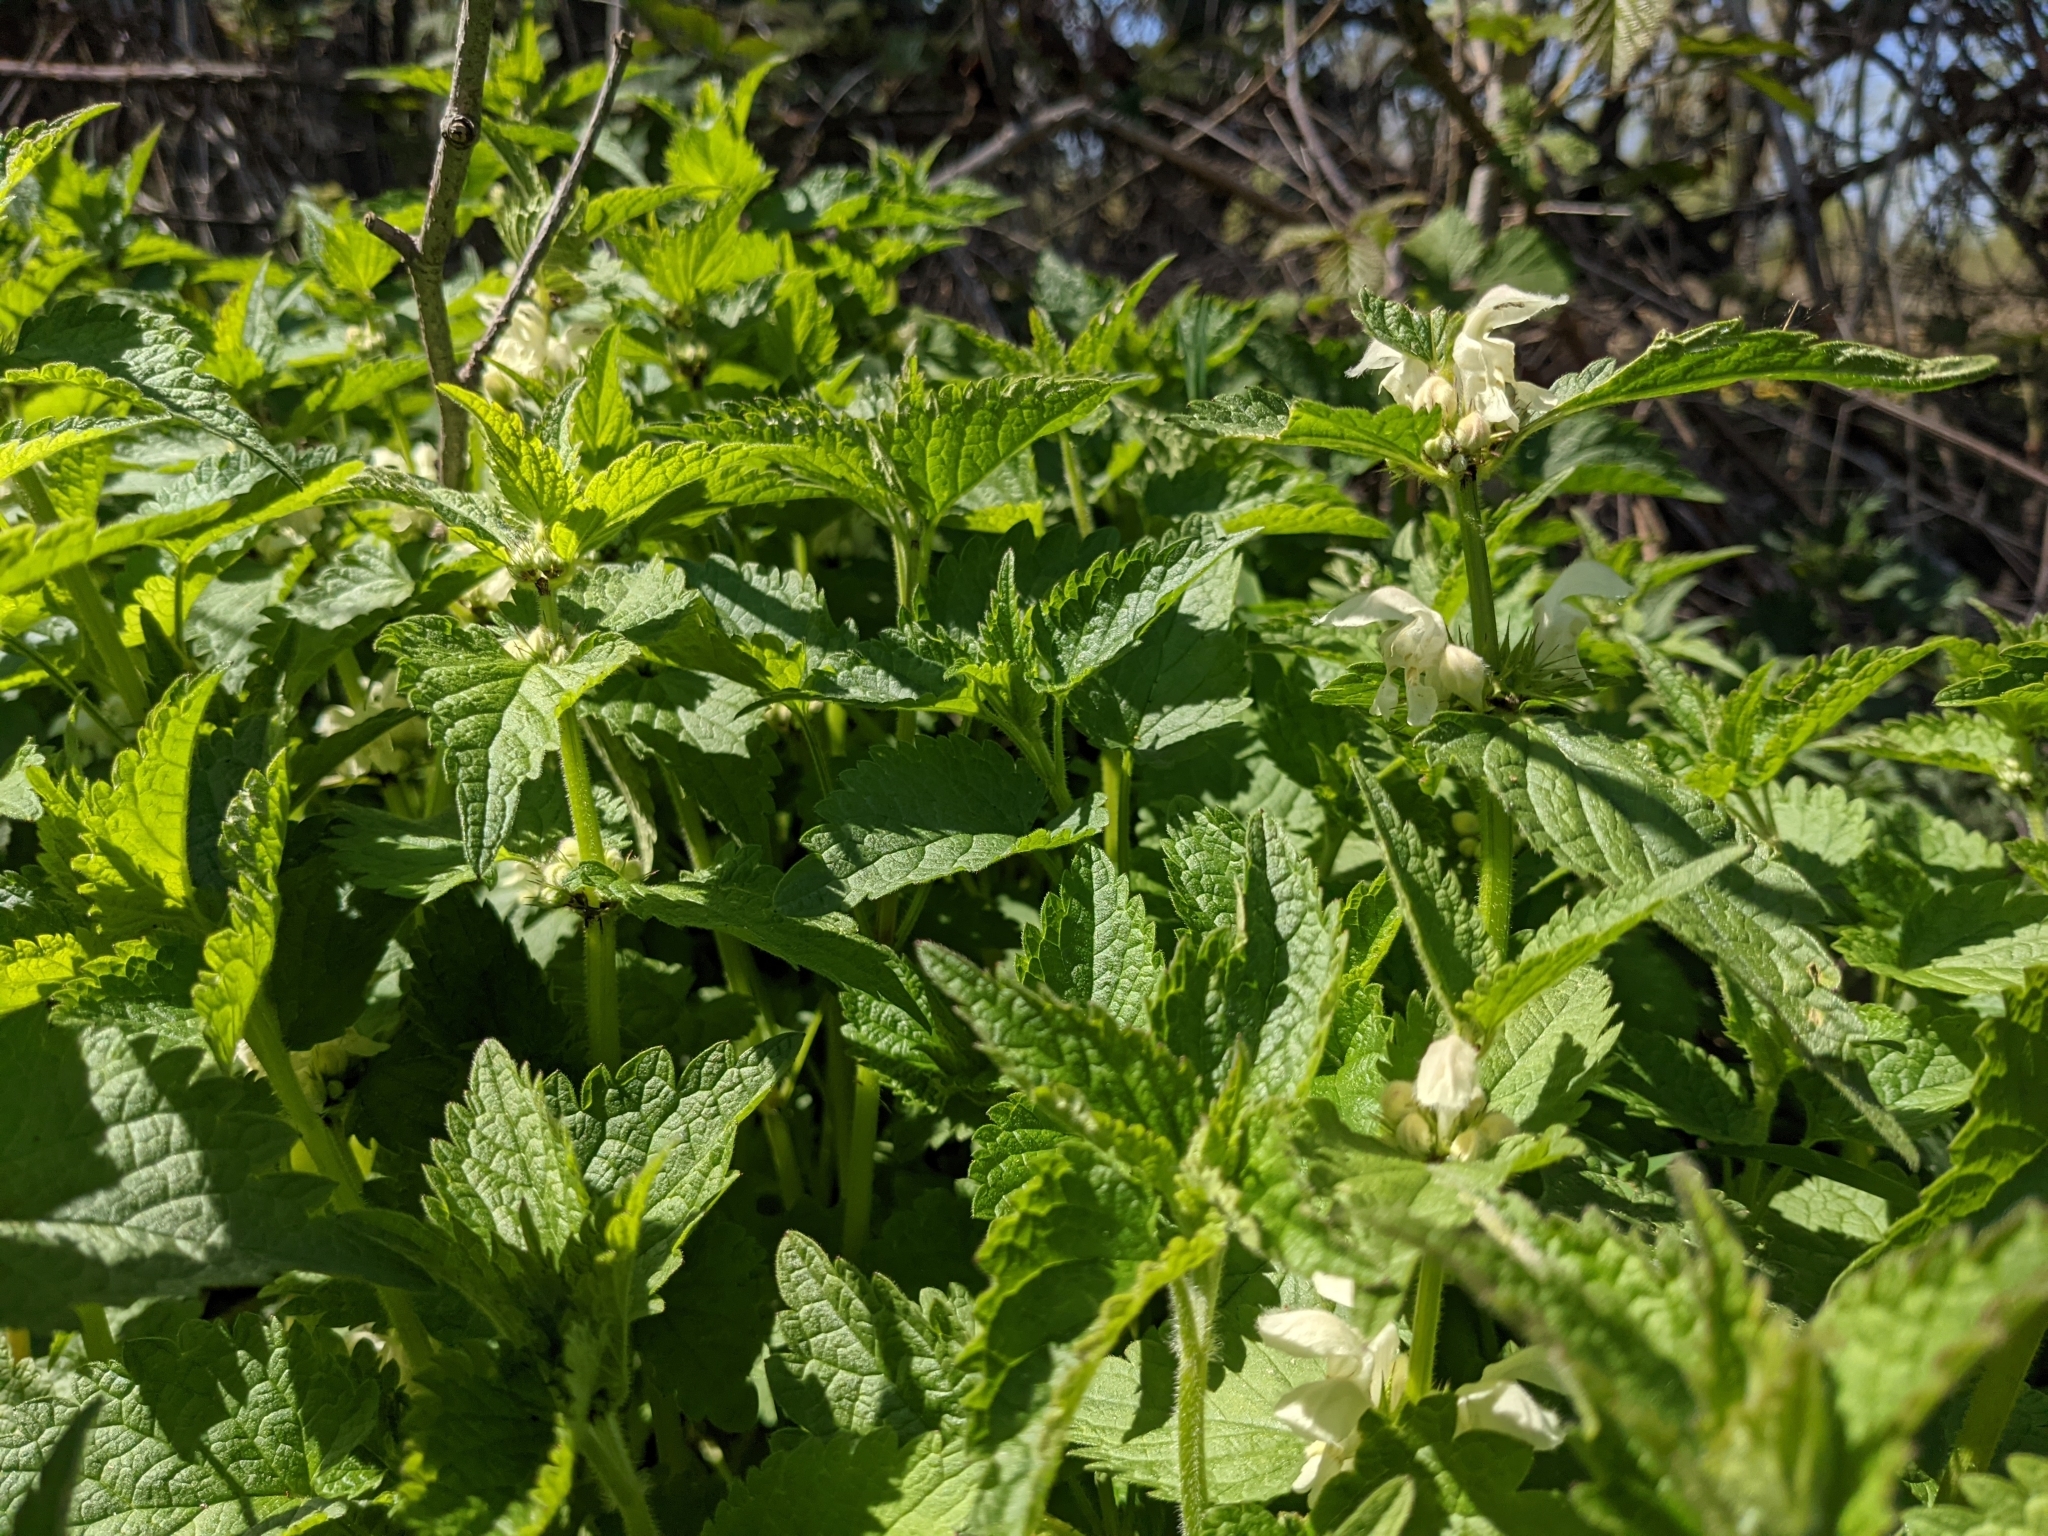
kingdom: Plantae
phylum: Tracheophyta
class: Magnoliopsida
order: Lamiales
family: Lamiaceae
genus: Lamium
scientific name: Lamium album
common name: White dead-nettle
